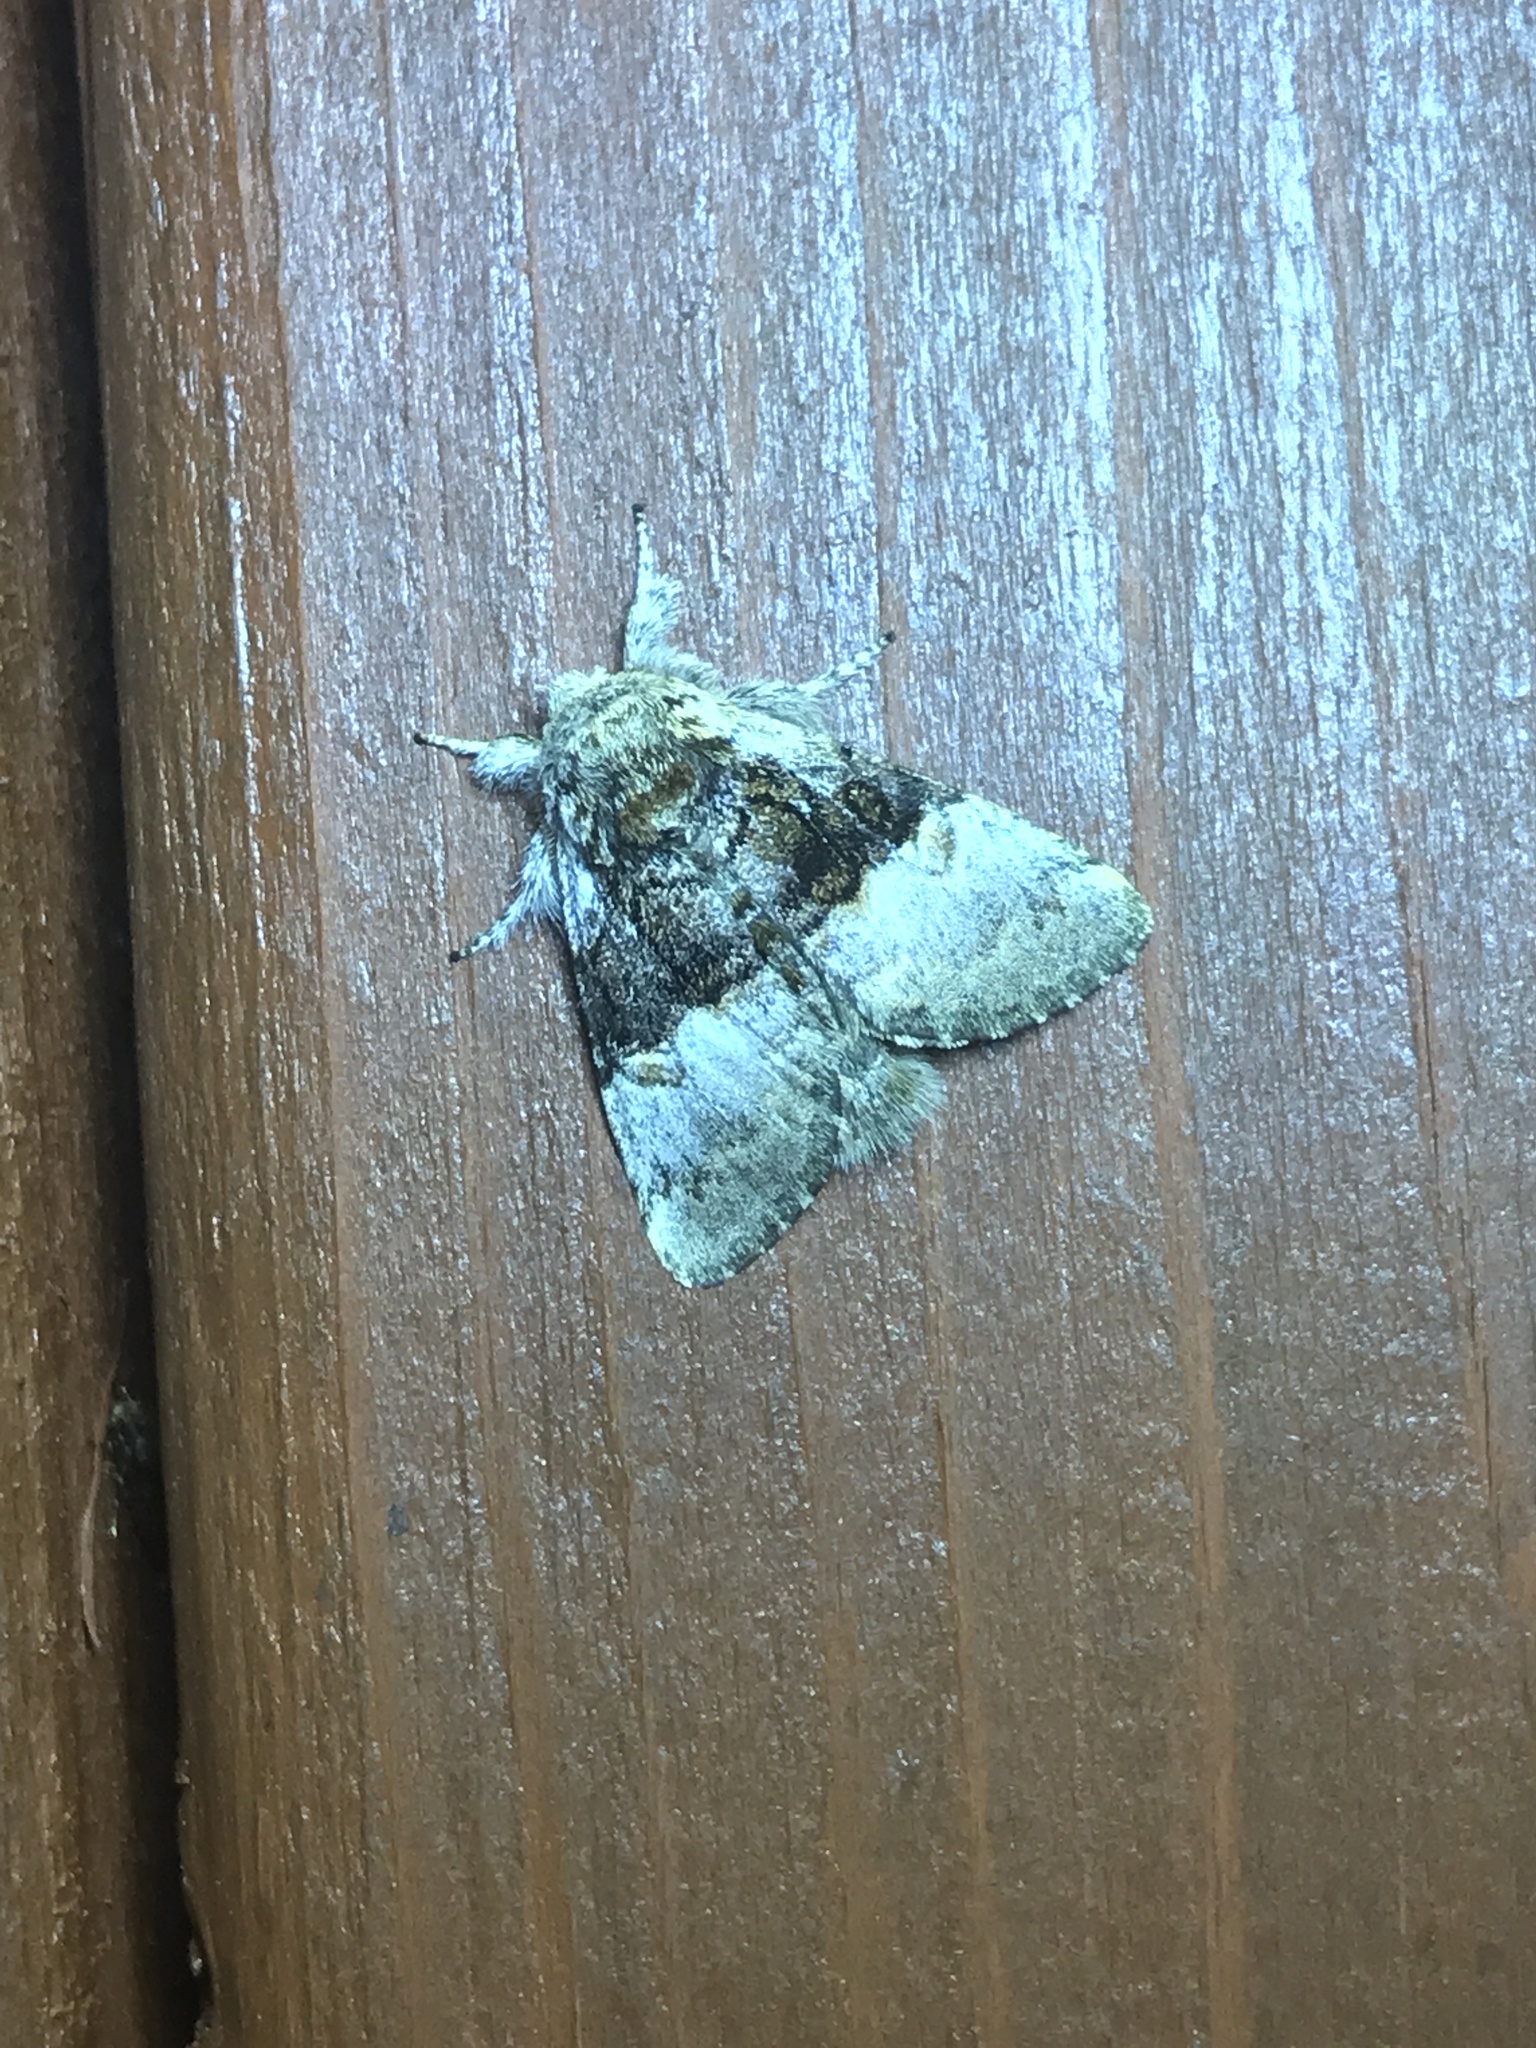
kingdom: Animalia
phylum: Arthropoda
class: Insecta
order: Lepidoptera
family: Noctuidae
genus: Colocasia
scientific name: Colocasia coryli
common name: Nut-tree tussock
